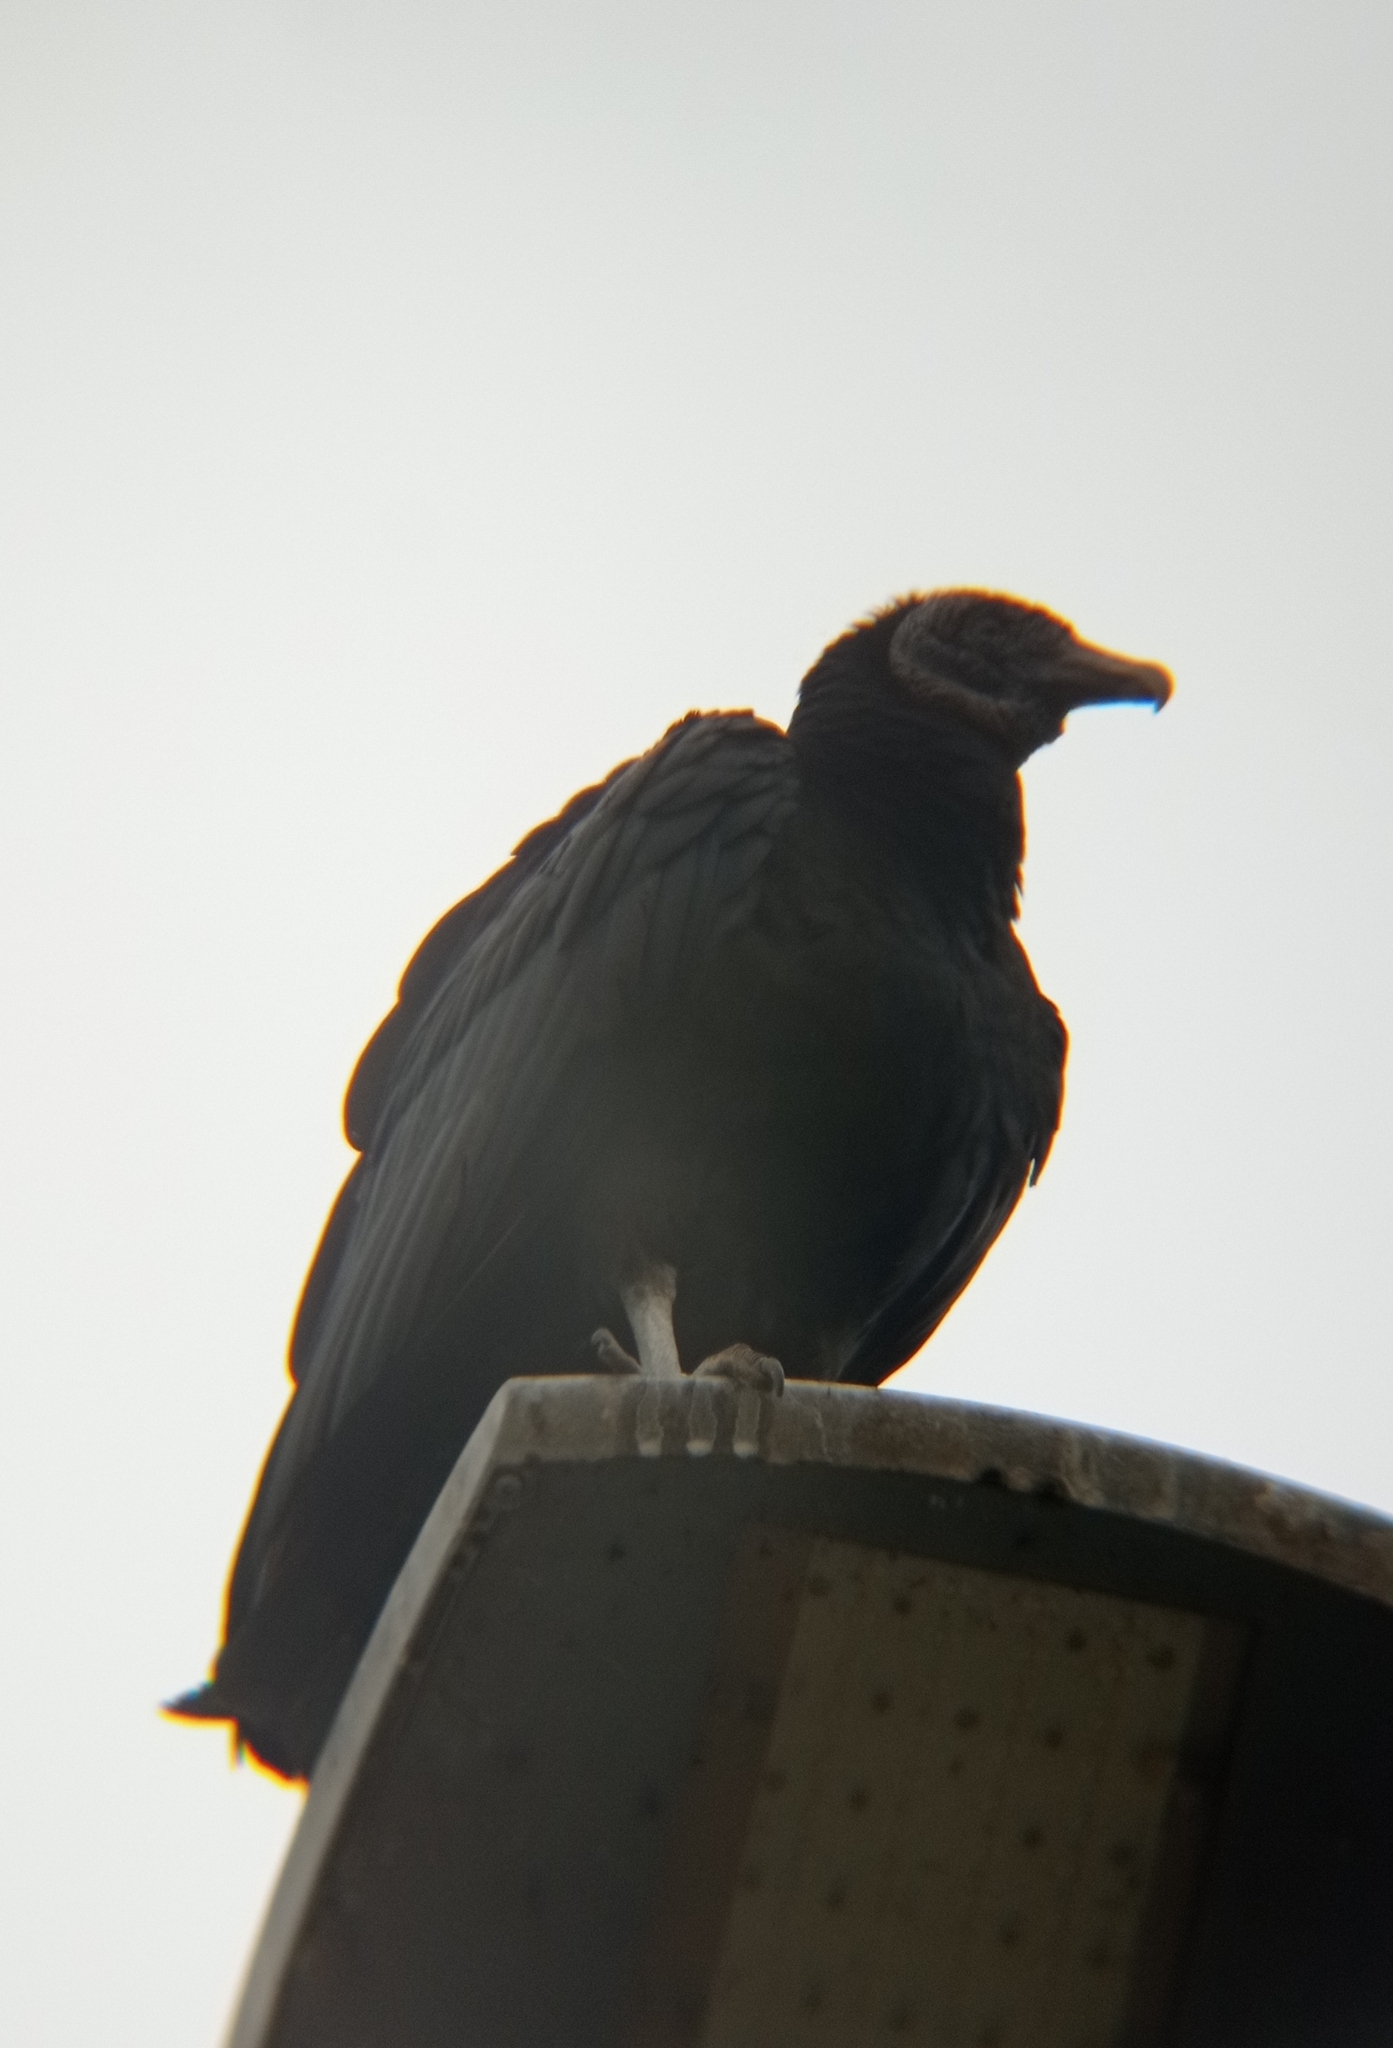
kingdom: Animalia
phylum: Chordata
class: Aves
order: Accipitriformes
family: Cathartidae
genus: Coragyps
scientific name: Coragyps atratus
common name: Black vulture
